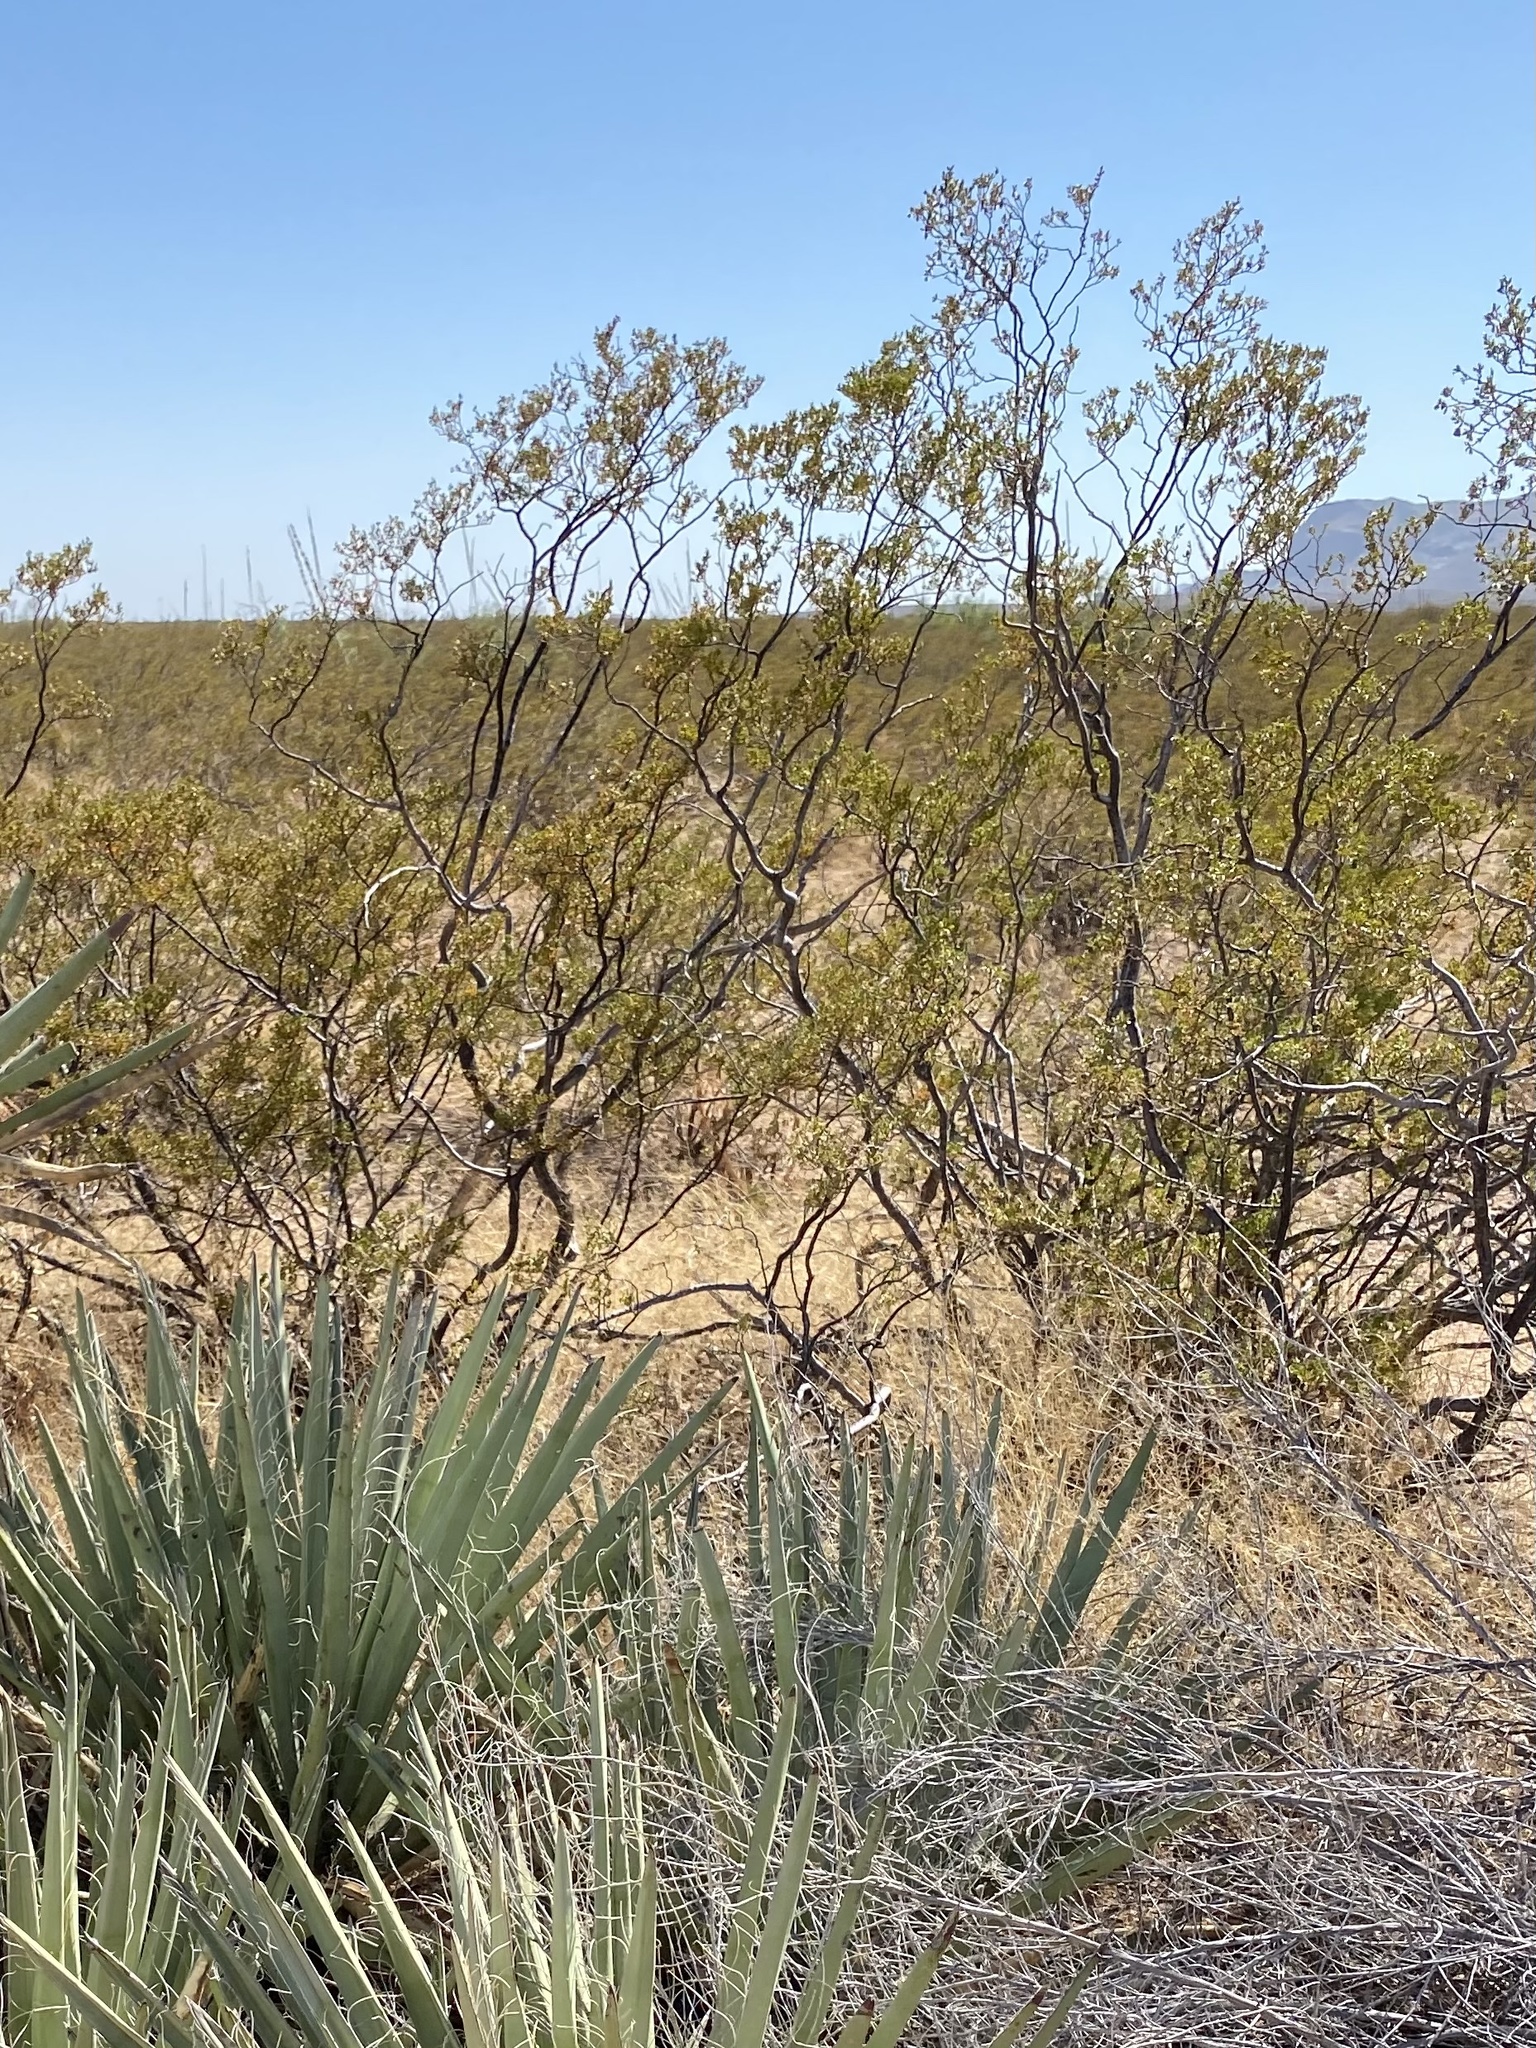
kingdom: Plantae
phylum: Tracheophyta
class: Magnoliopsida
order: Zygophyllales
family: Zygophyllaceae
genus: Larrea
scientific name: Larrea tridentata
